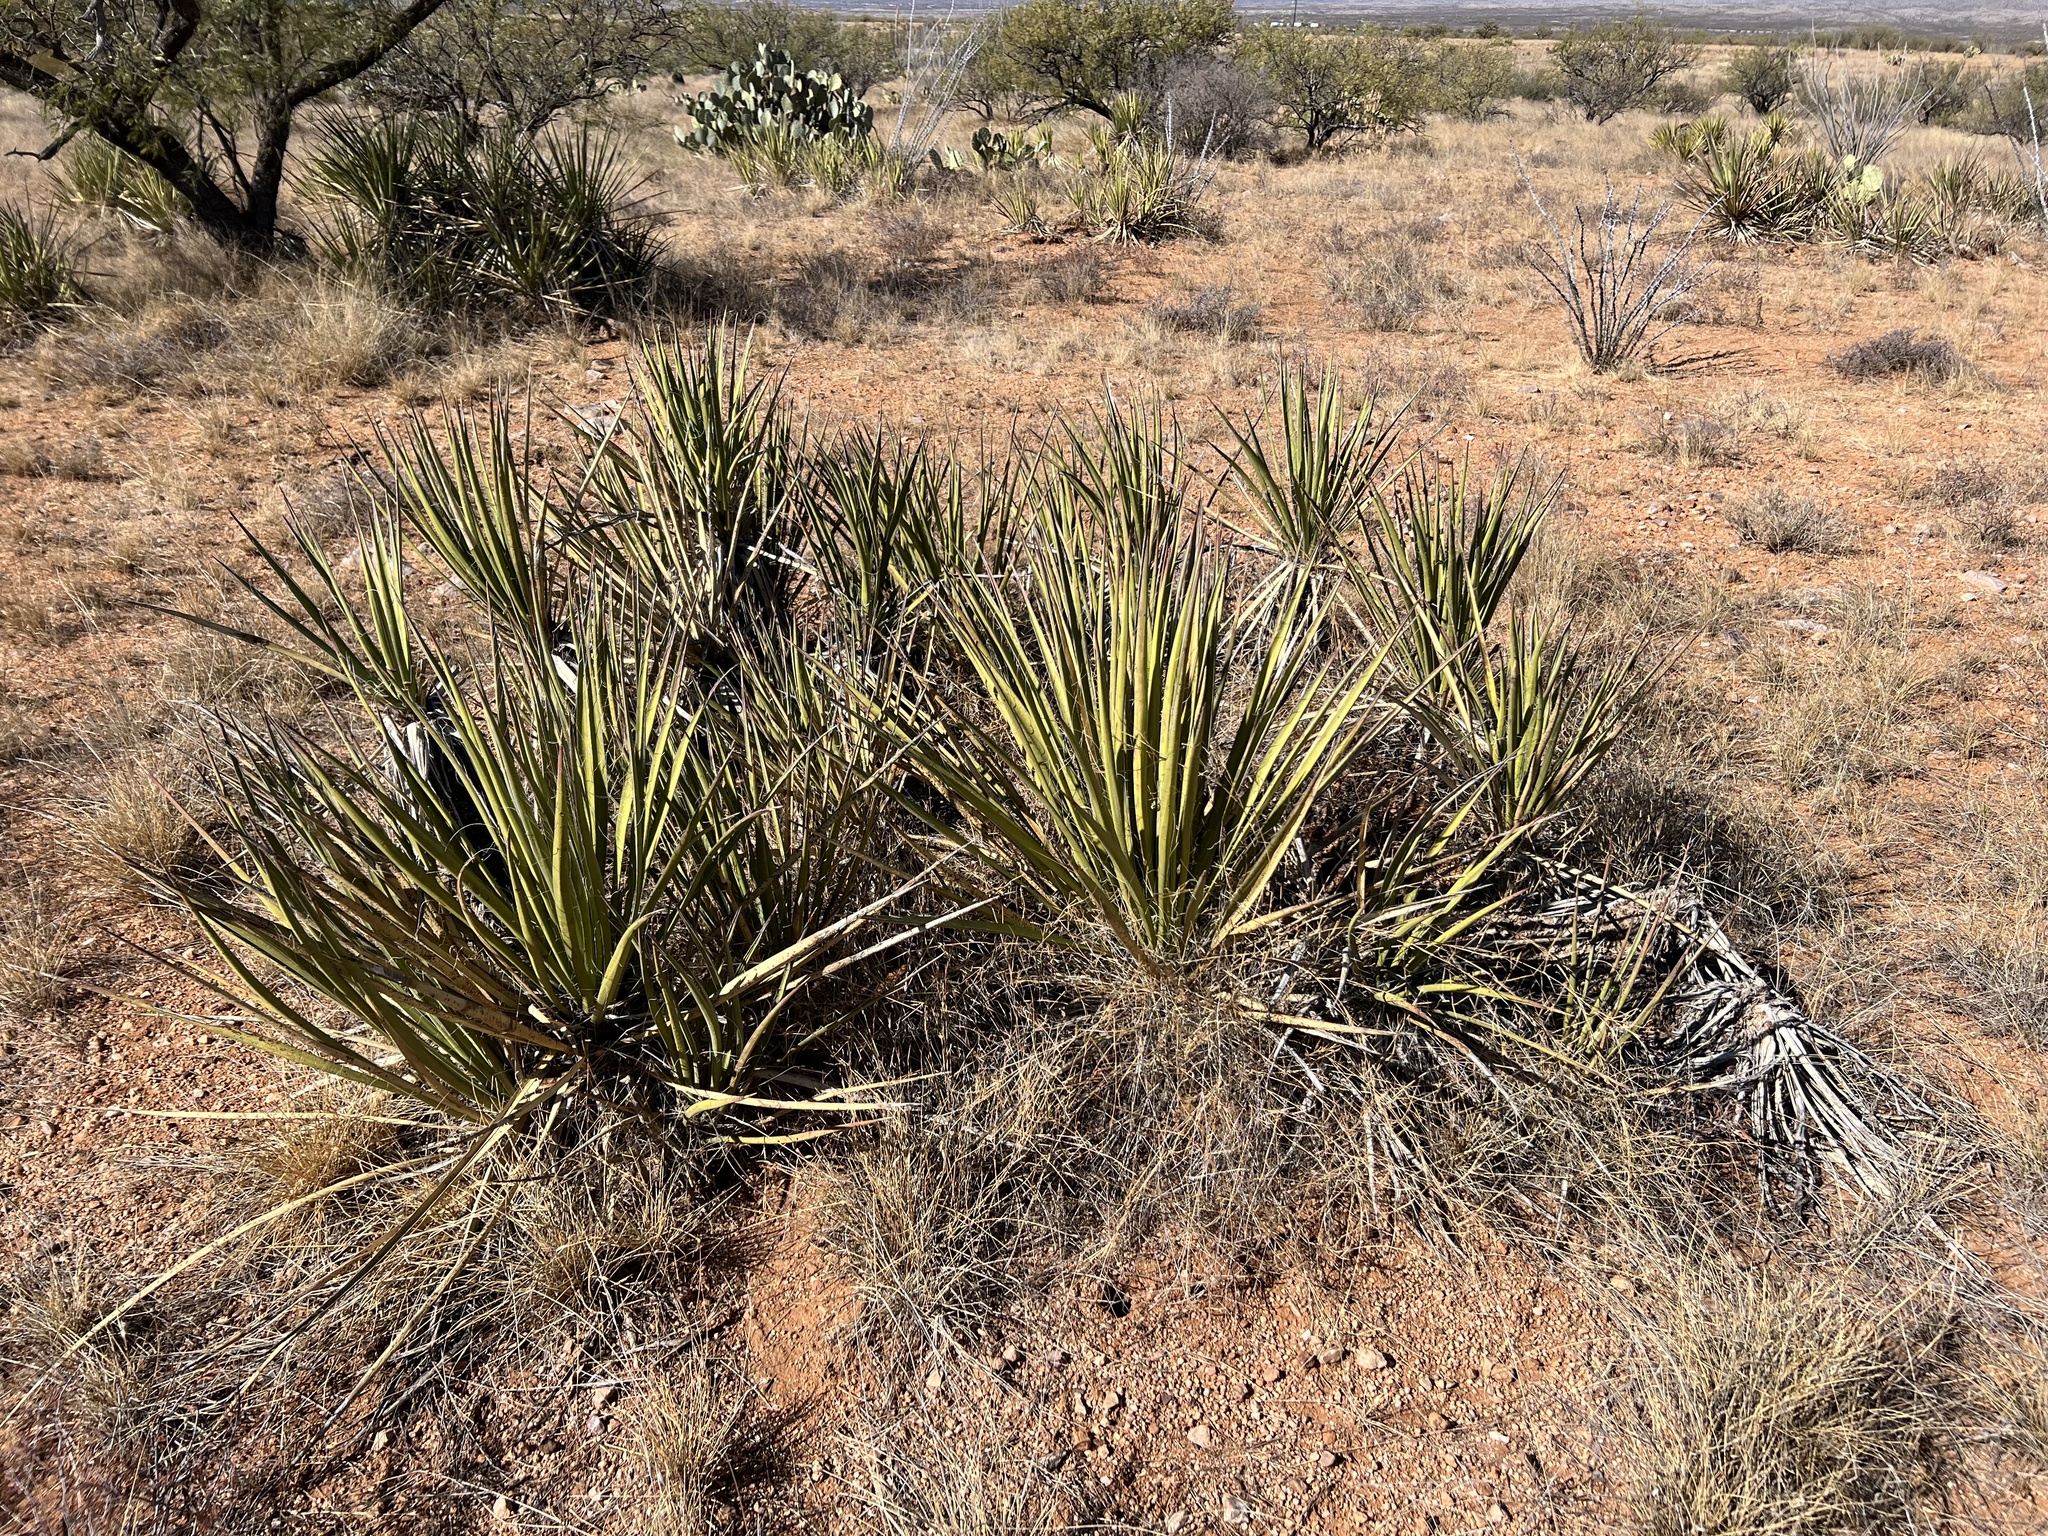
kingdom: Plantae
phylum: Tracheophyta
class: Liliopsida
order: Asparagales
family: Asparagaceae
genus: Yucca
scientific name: Yucca baccata
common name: Banana yucca
